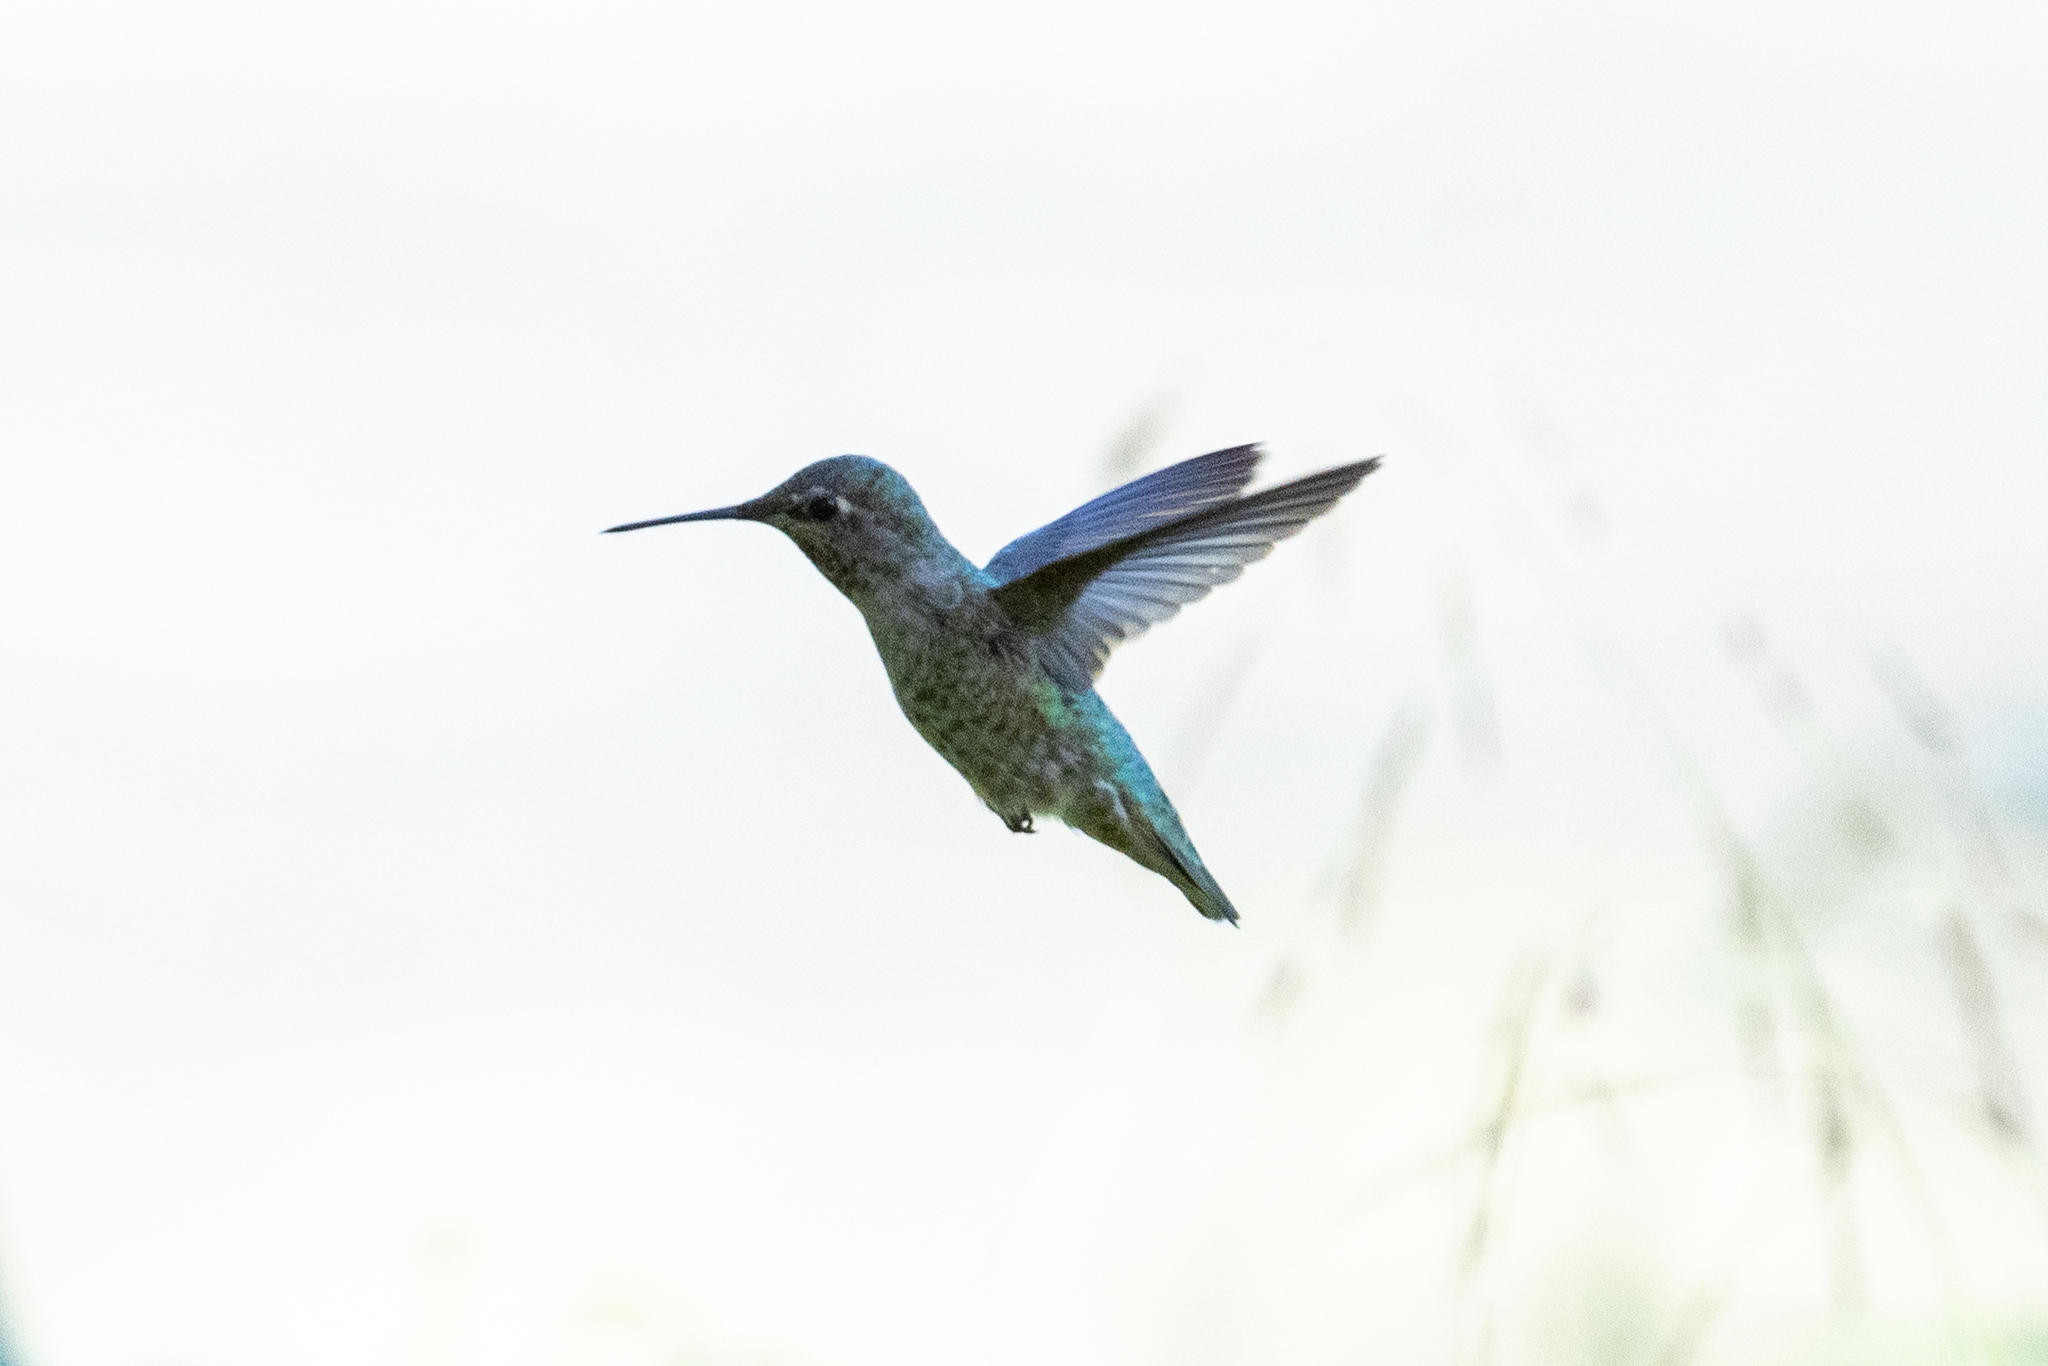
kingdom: Animalia
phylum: Chordata
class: Aves
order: Apodiformes
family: Trochilidae
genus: Calypte
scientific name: Calypte anna
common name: Anna's hummingbird
